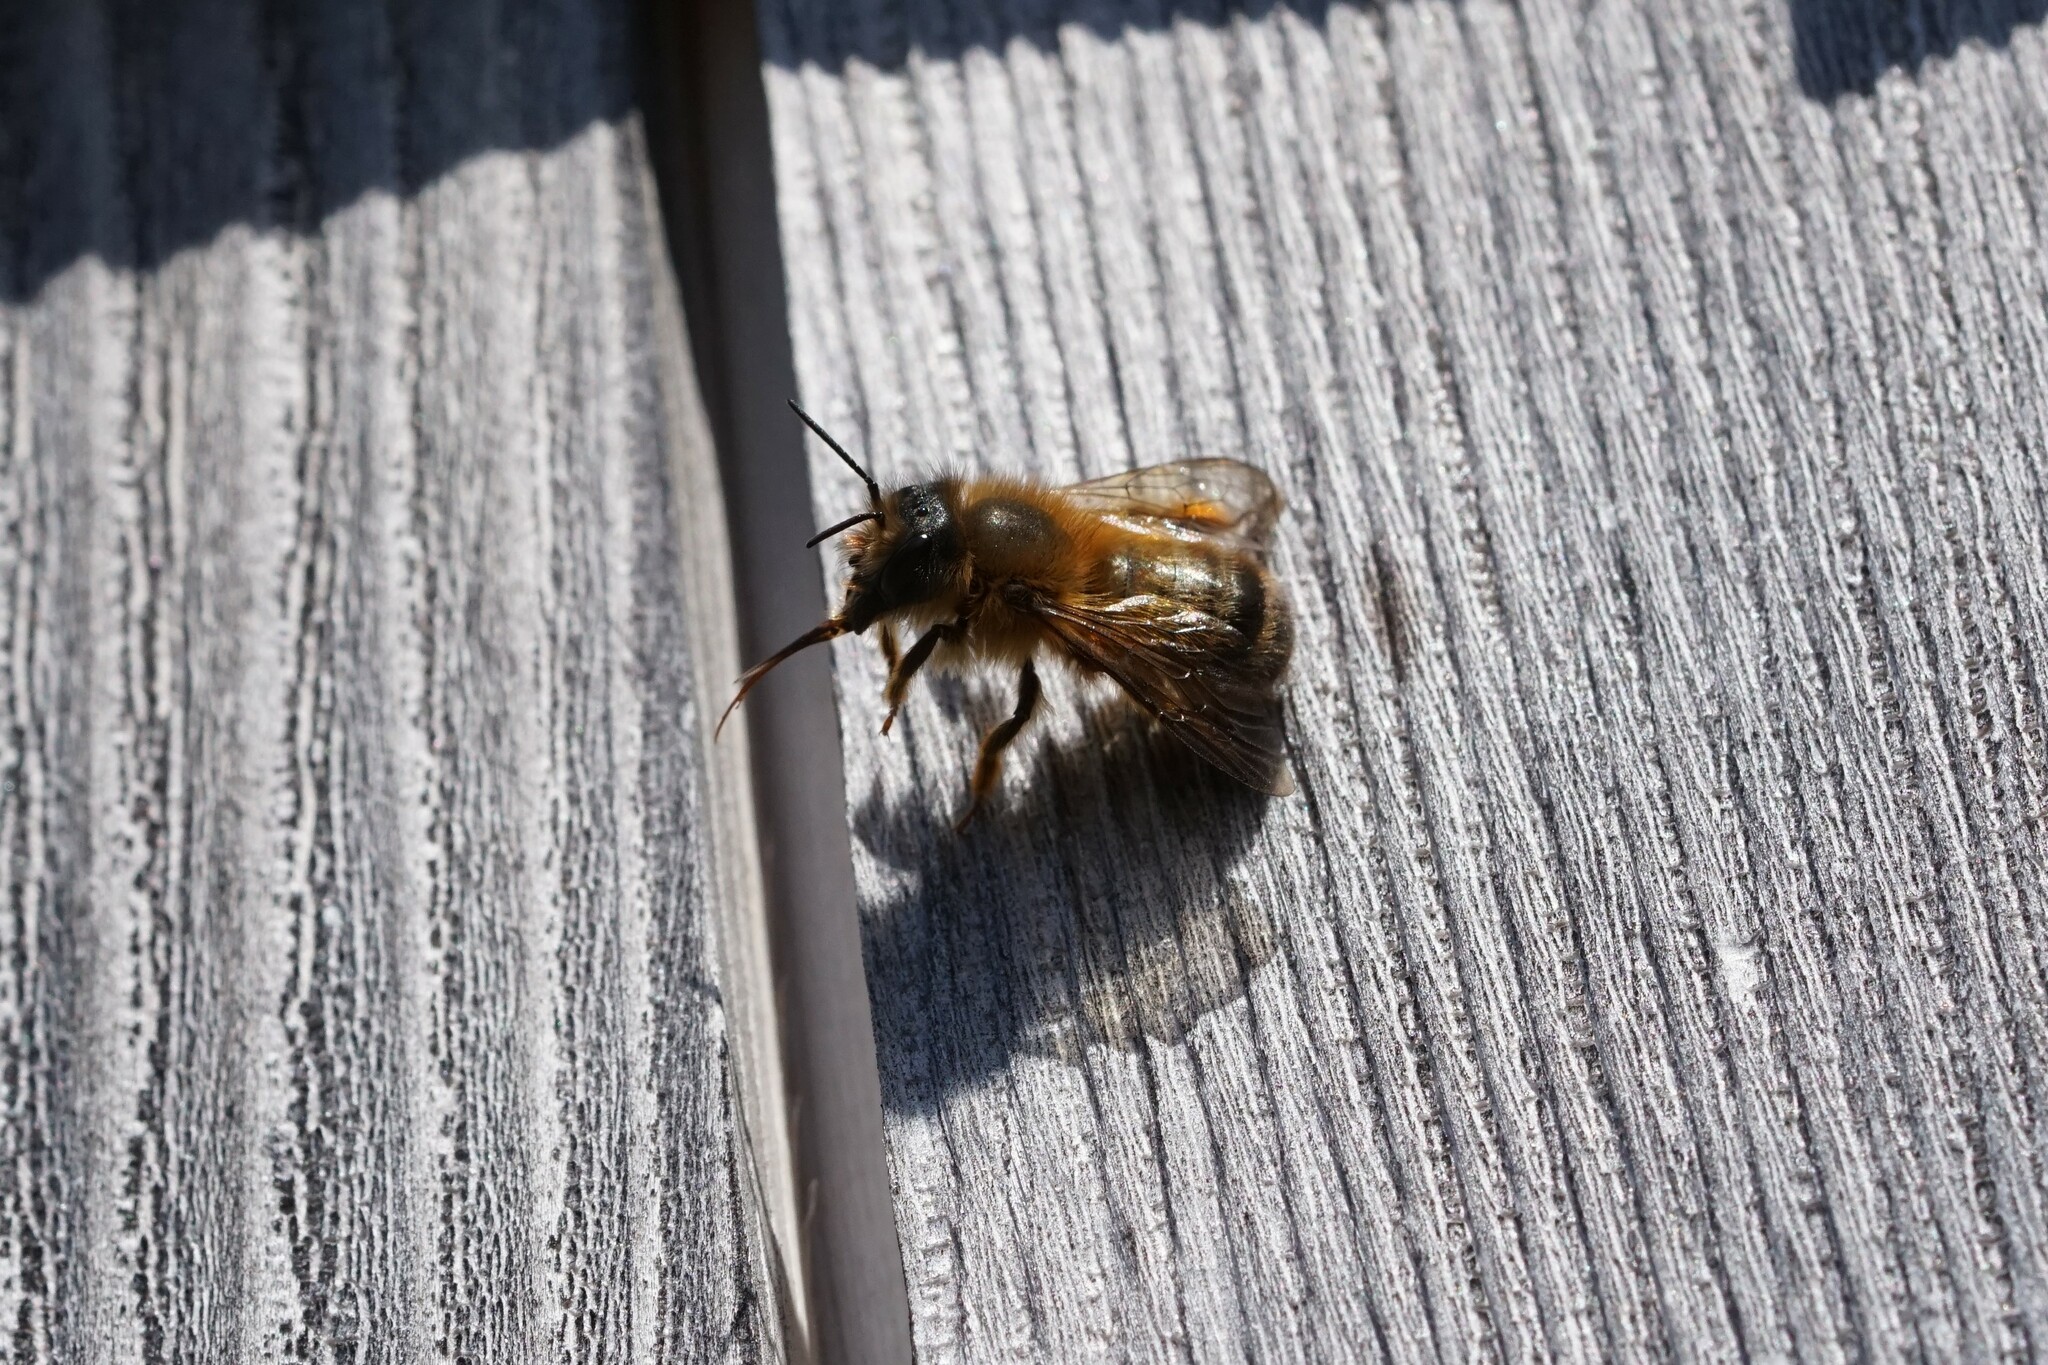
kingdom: Animalia
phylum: Arthropoda
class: Insecta
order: Hymenoptera
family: Megachilidae
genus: Osmia
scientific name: Osmia taurus
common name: Taurus mason bee
